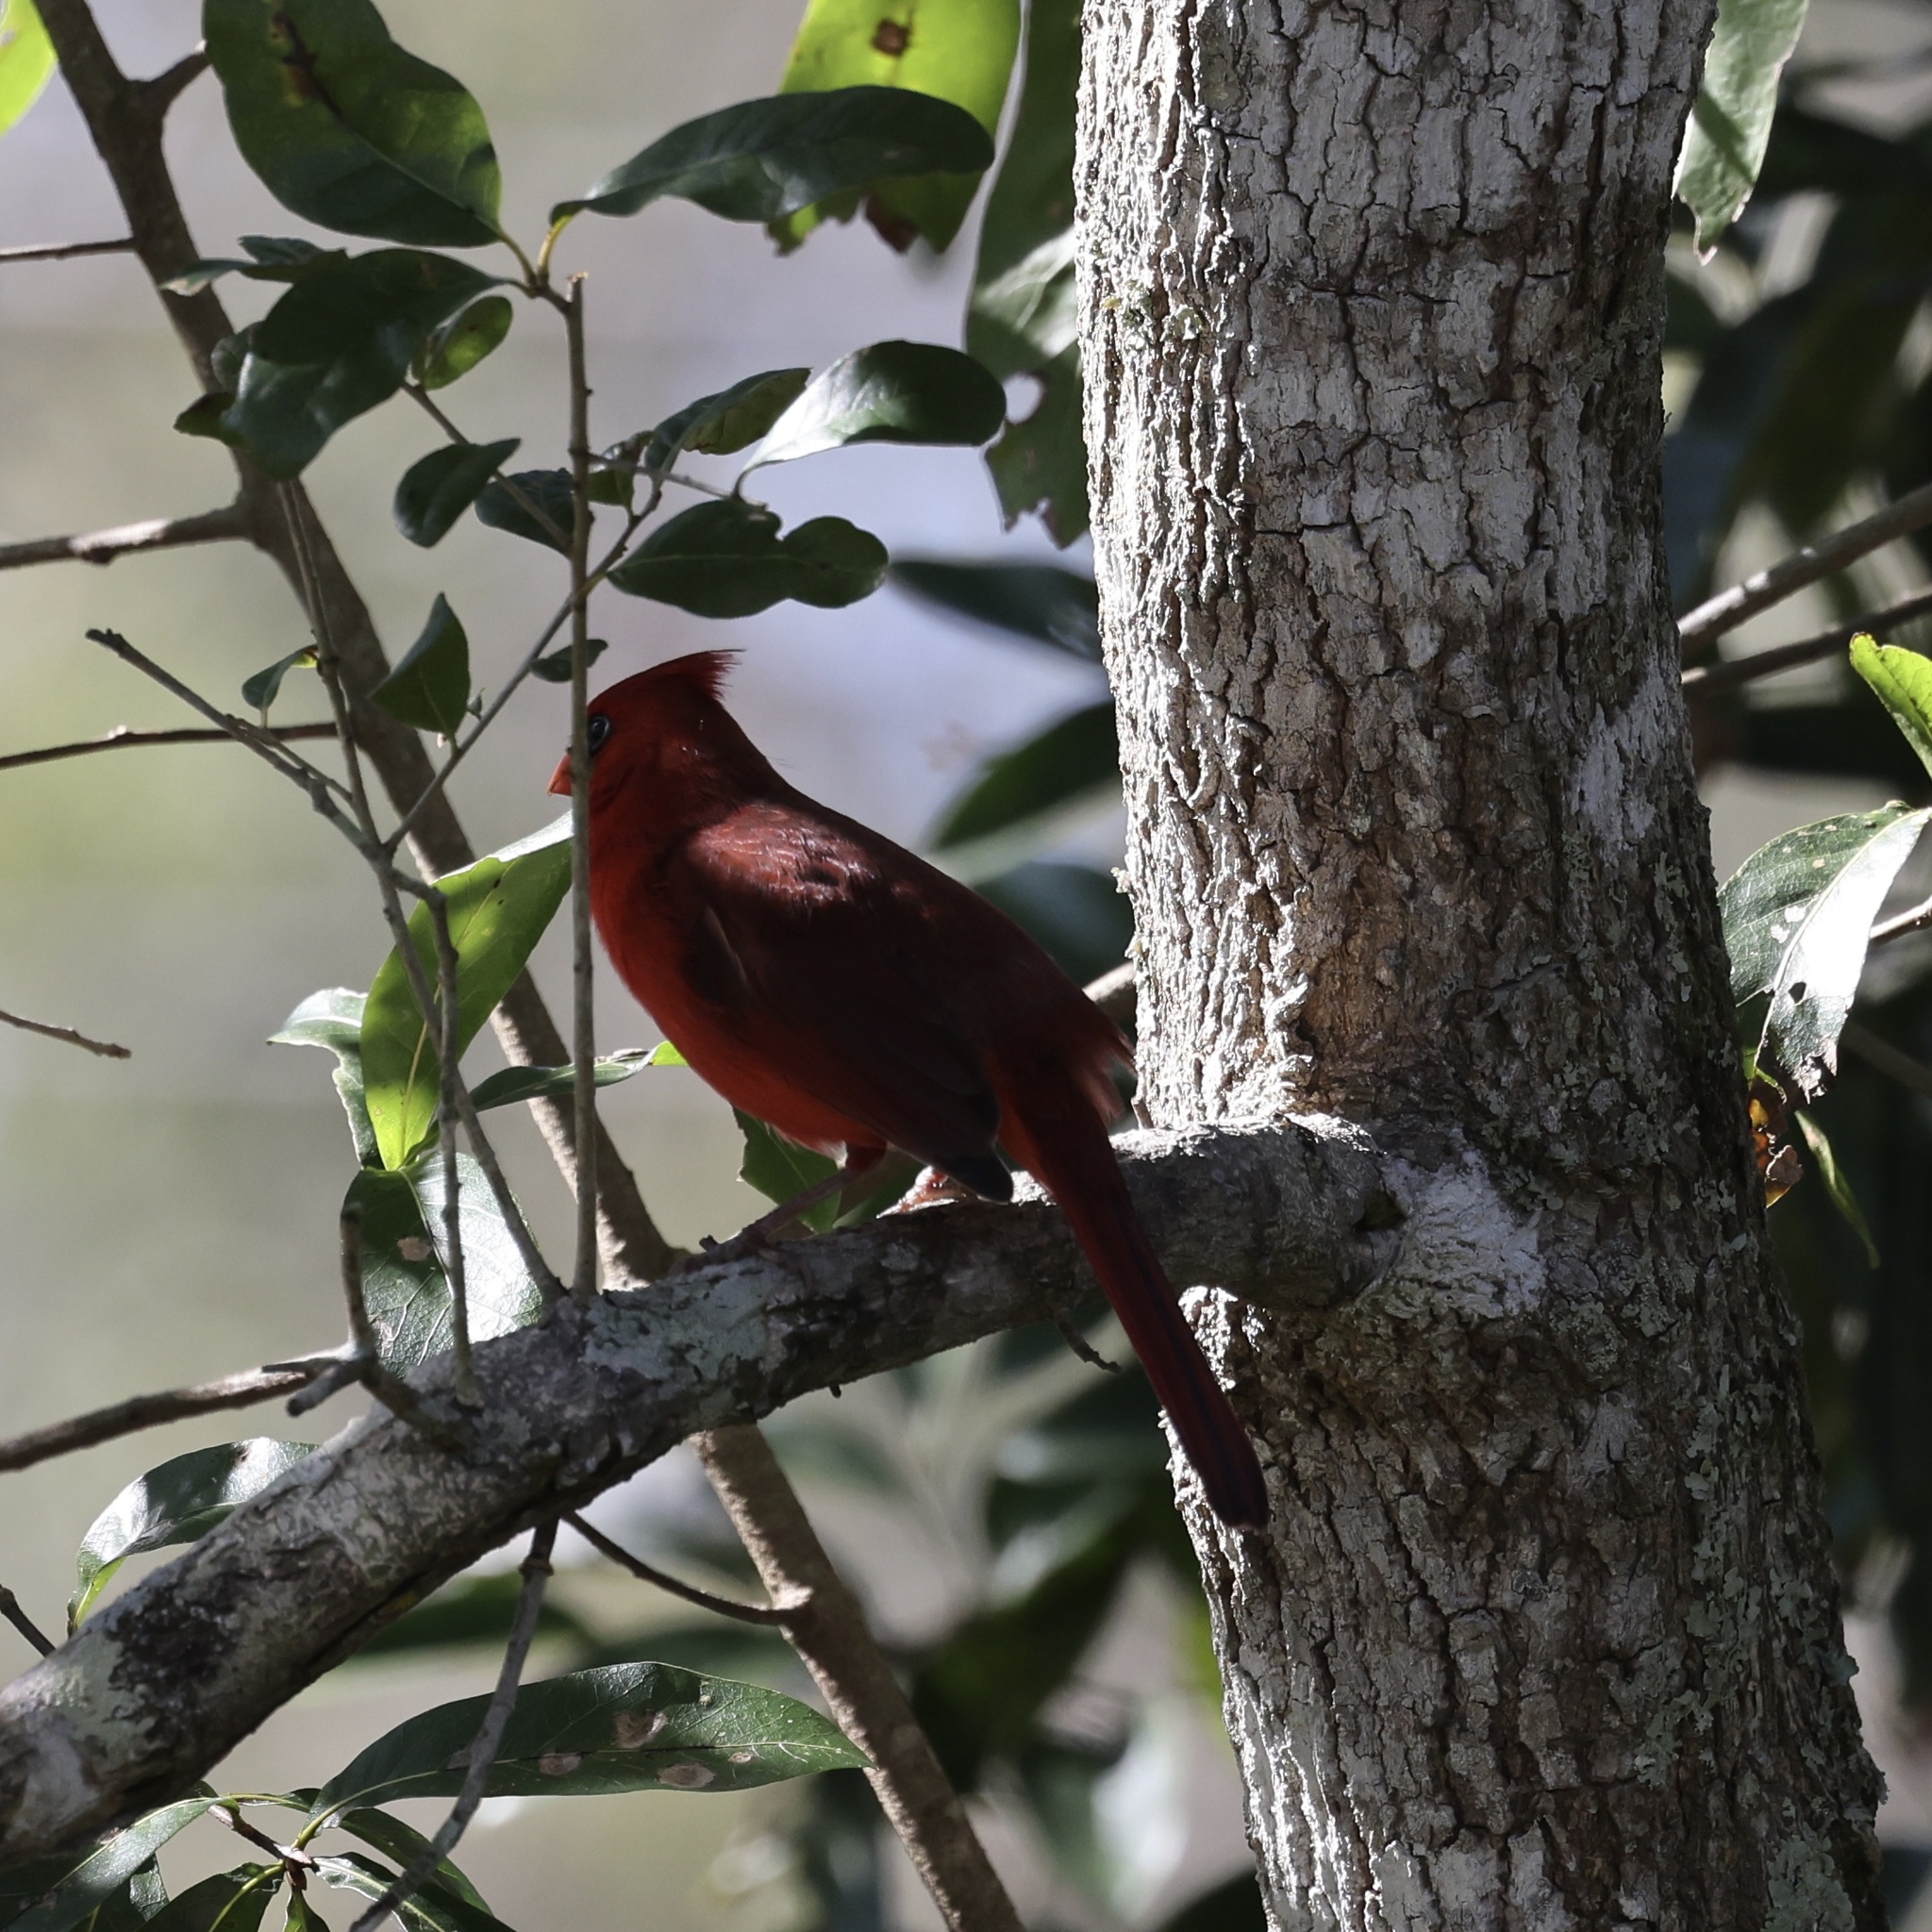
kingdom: Animalia
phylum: Chordata
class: Aves
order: Passeriformes
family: Cardinalidae
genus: Cardinalis
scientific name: Cardinalis cardinalis
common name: Northern cardinal
